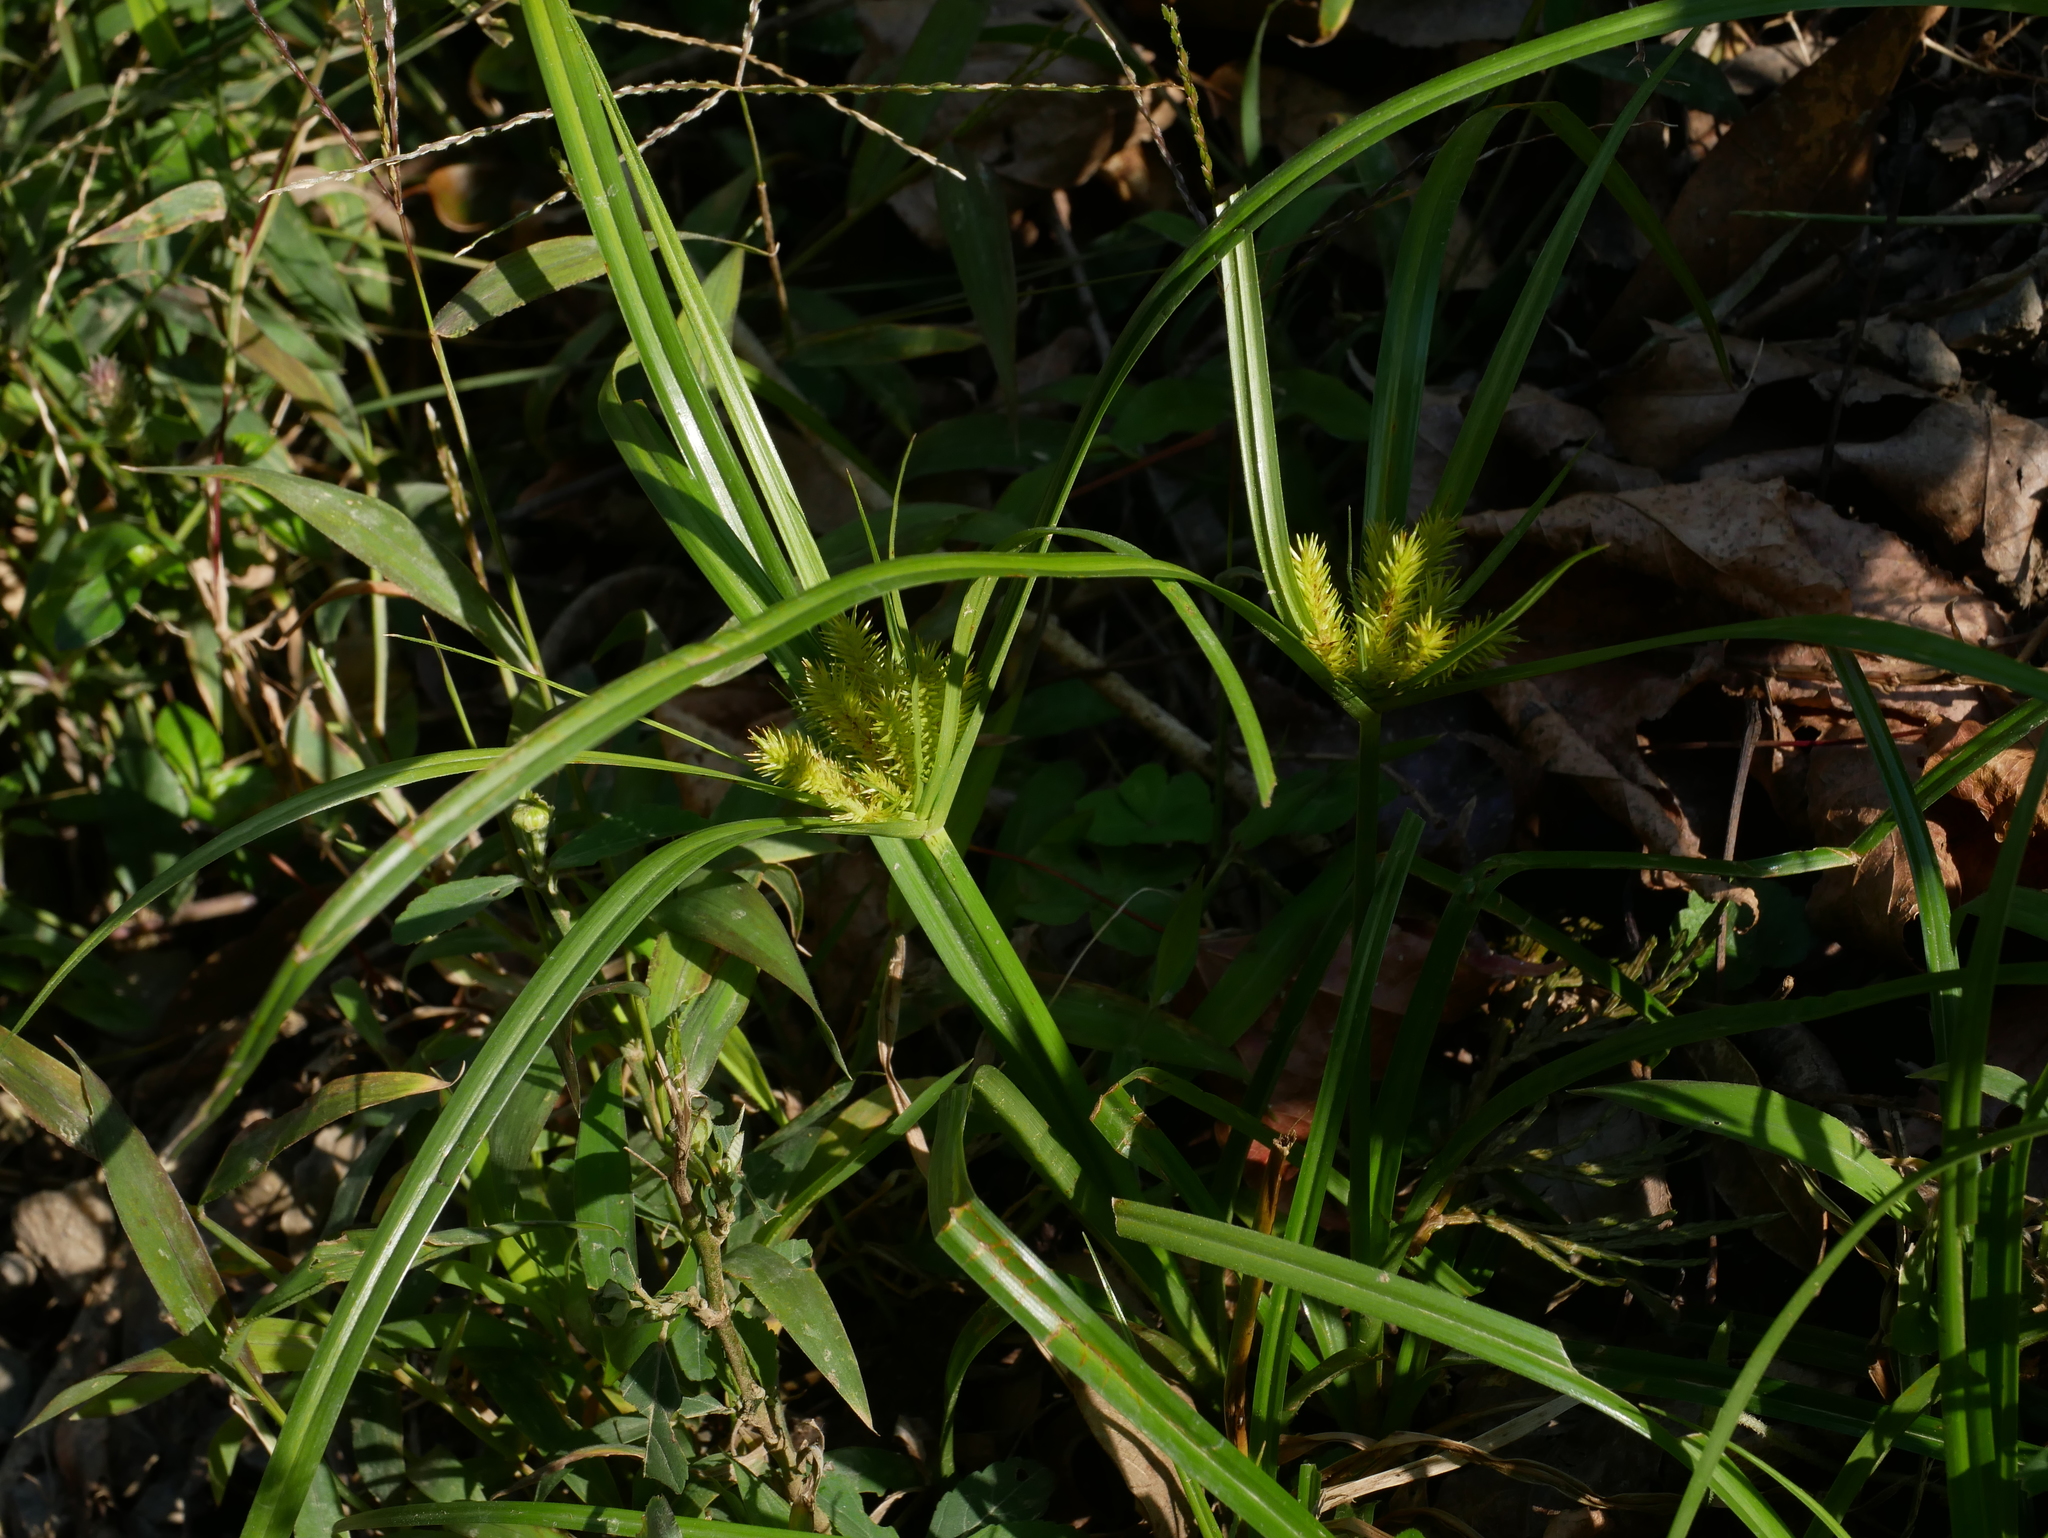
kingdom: Plantae
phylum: Tracheophyta
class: Liliopsida
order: Poales
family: Cyperaceae
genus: Cyperus
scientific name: Cyperus cyperoides
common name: Pacific island flat sedge
